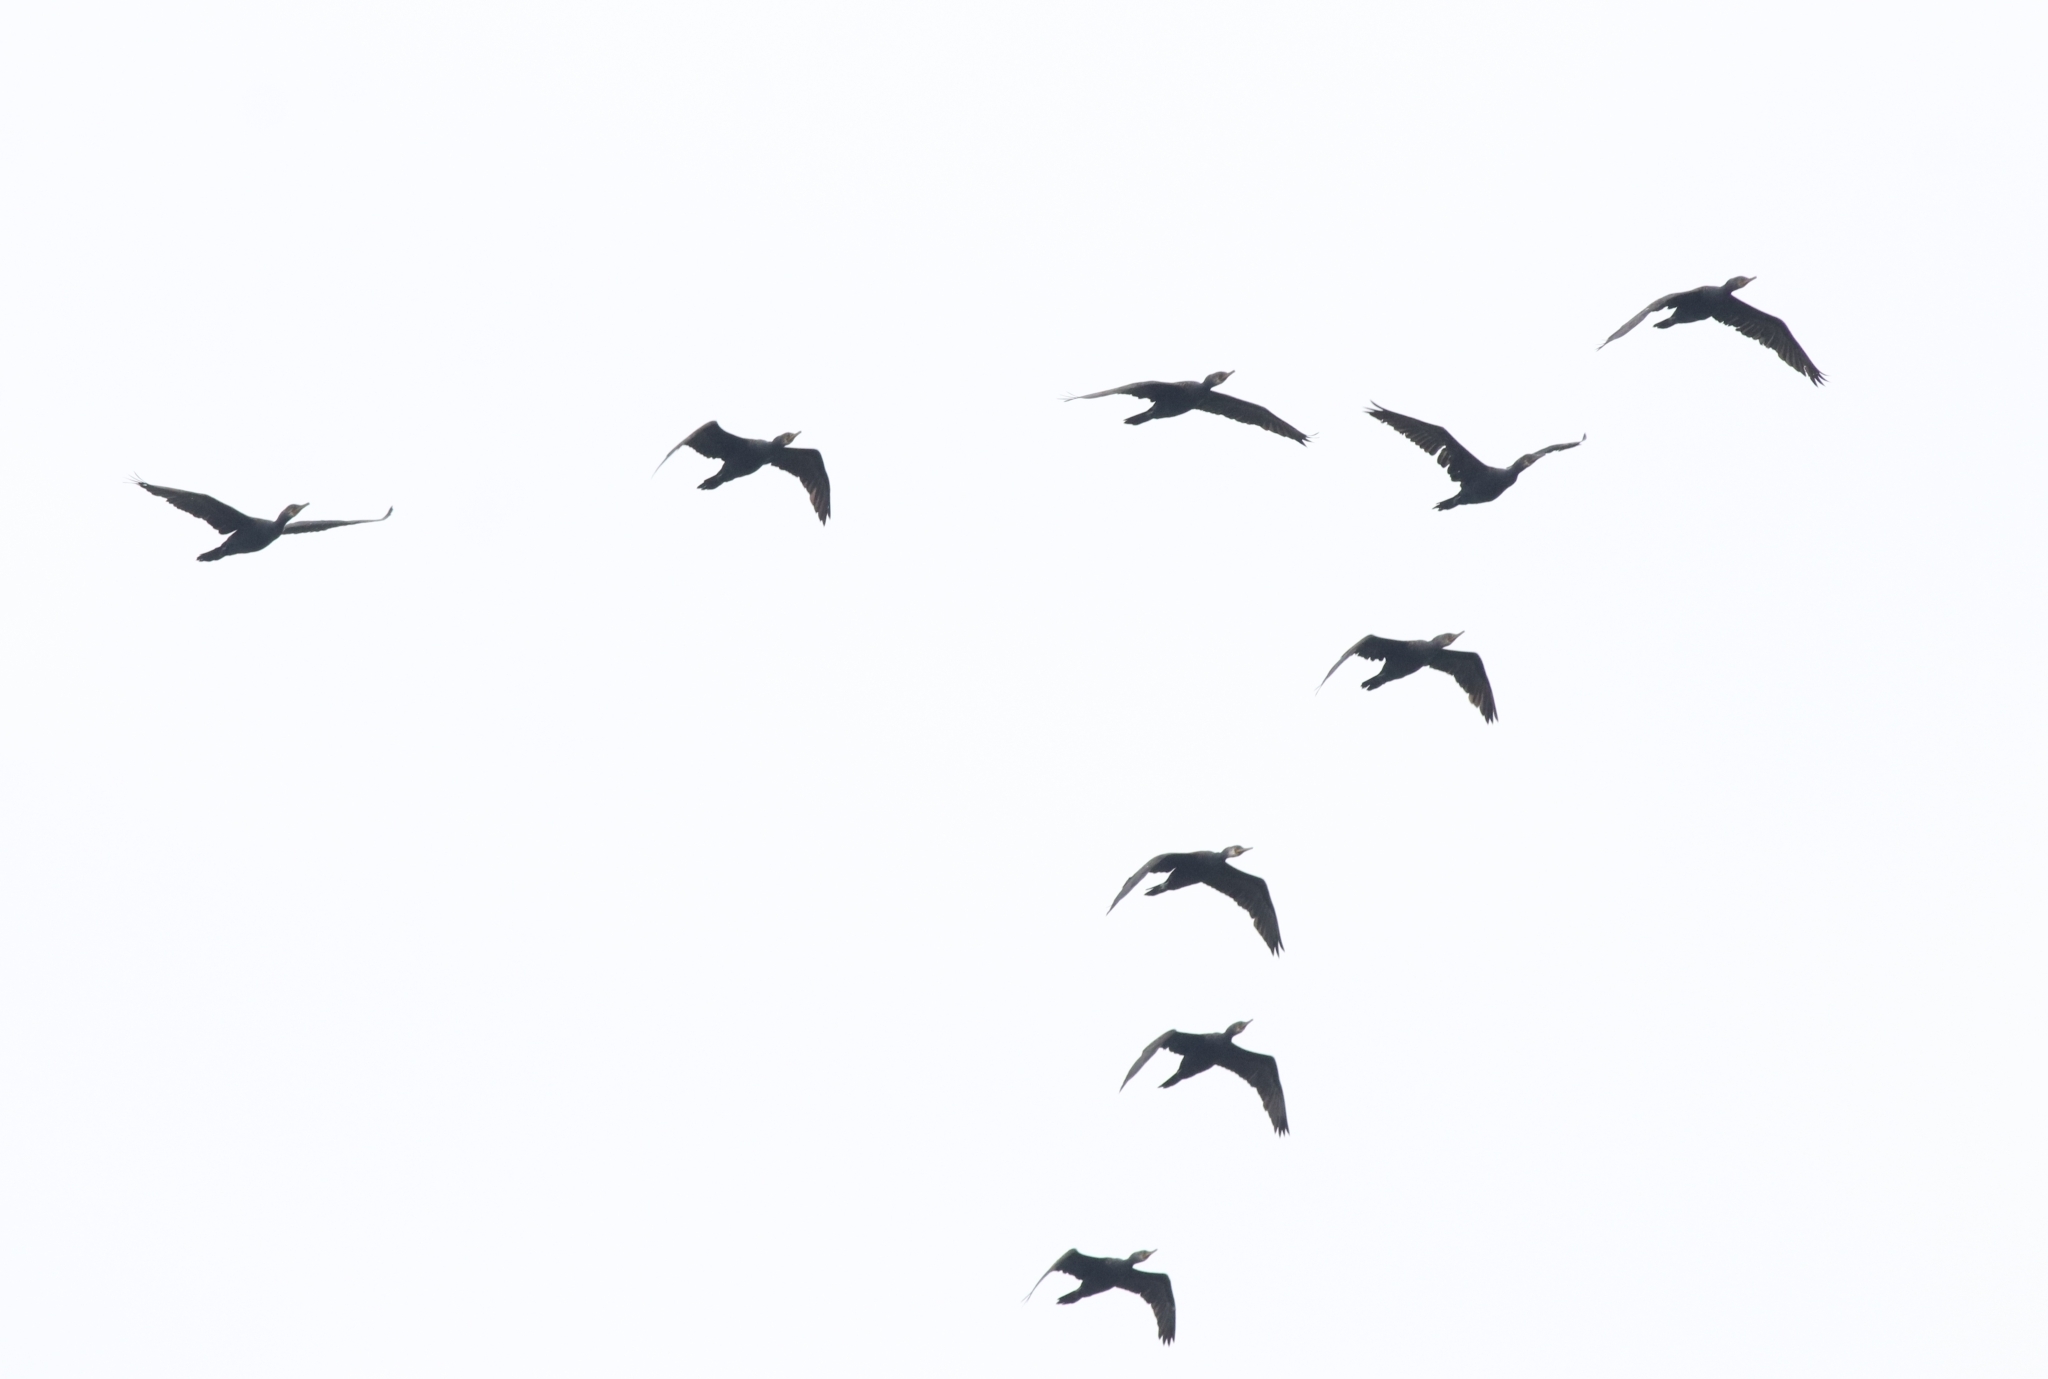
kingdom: Animalia
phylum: Chordata
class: Aves
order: Suliformes
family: Phalacrocoracidae
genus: Phalacrocorax
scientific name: Phalacrocorax fuscicollis
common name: Indian cormorant
